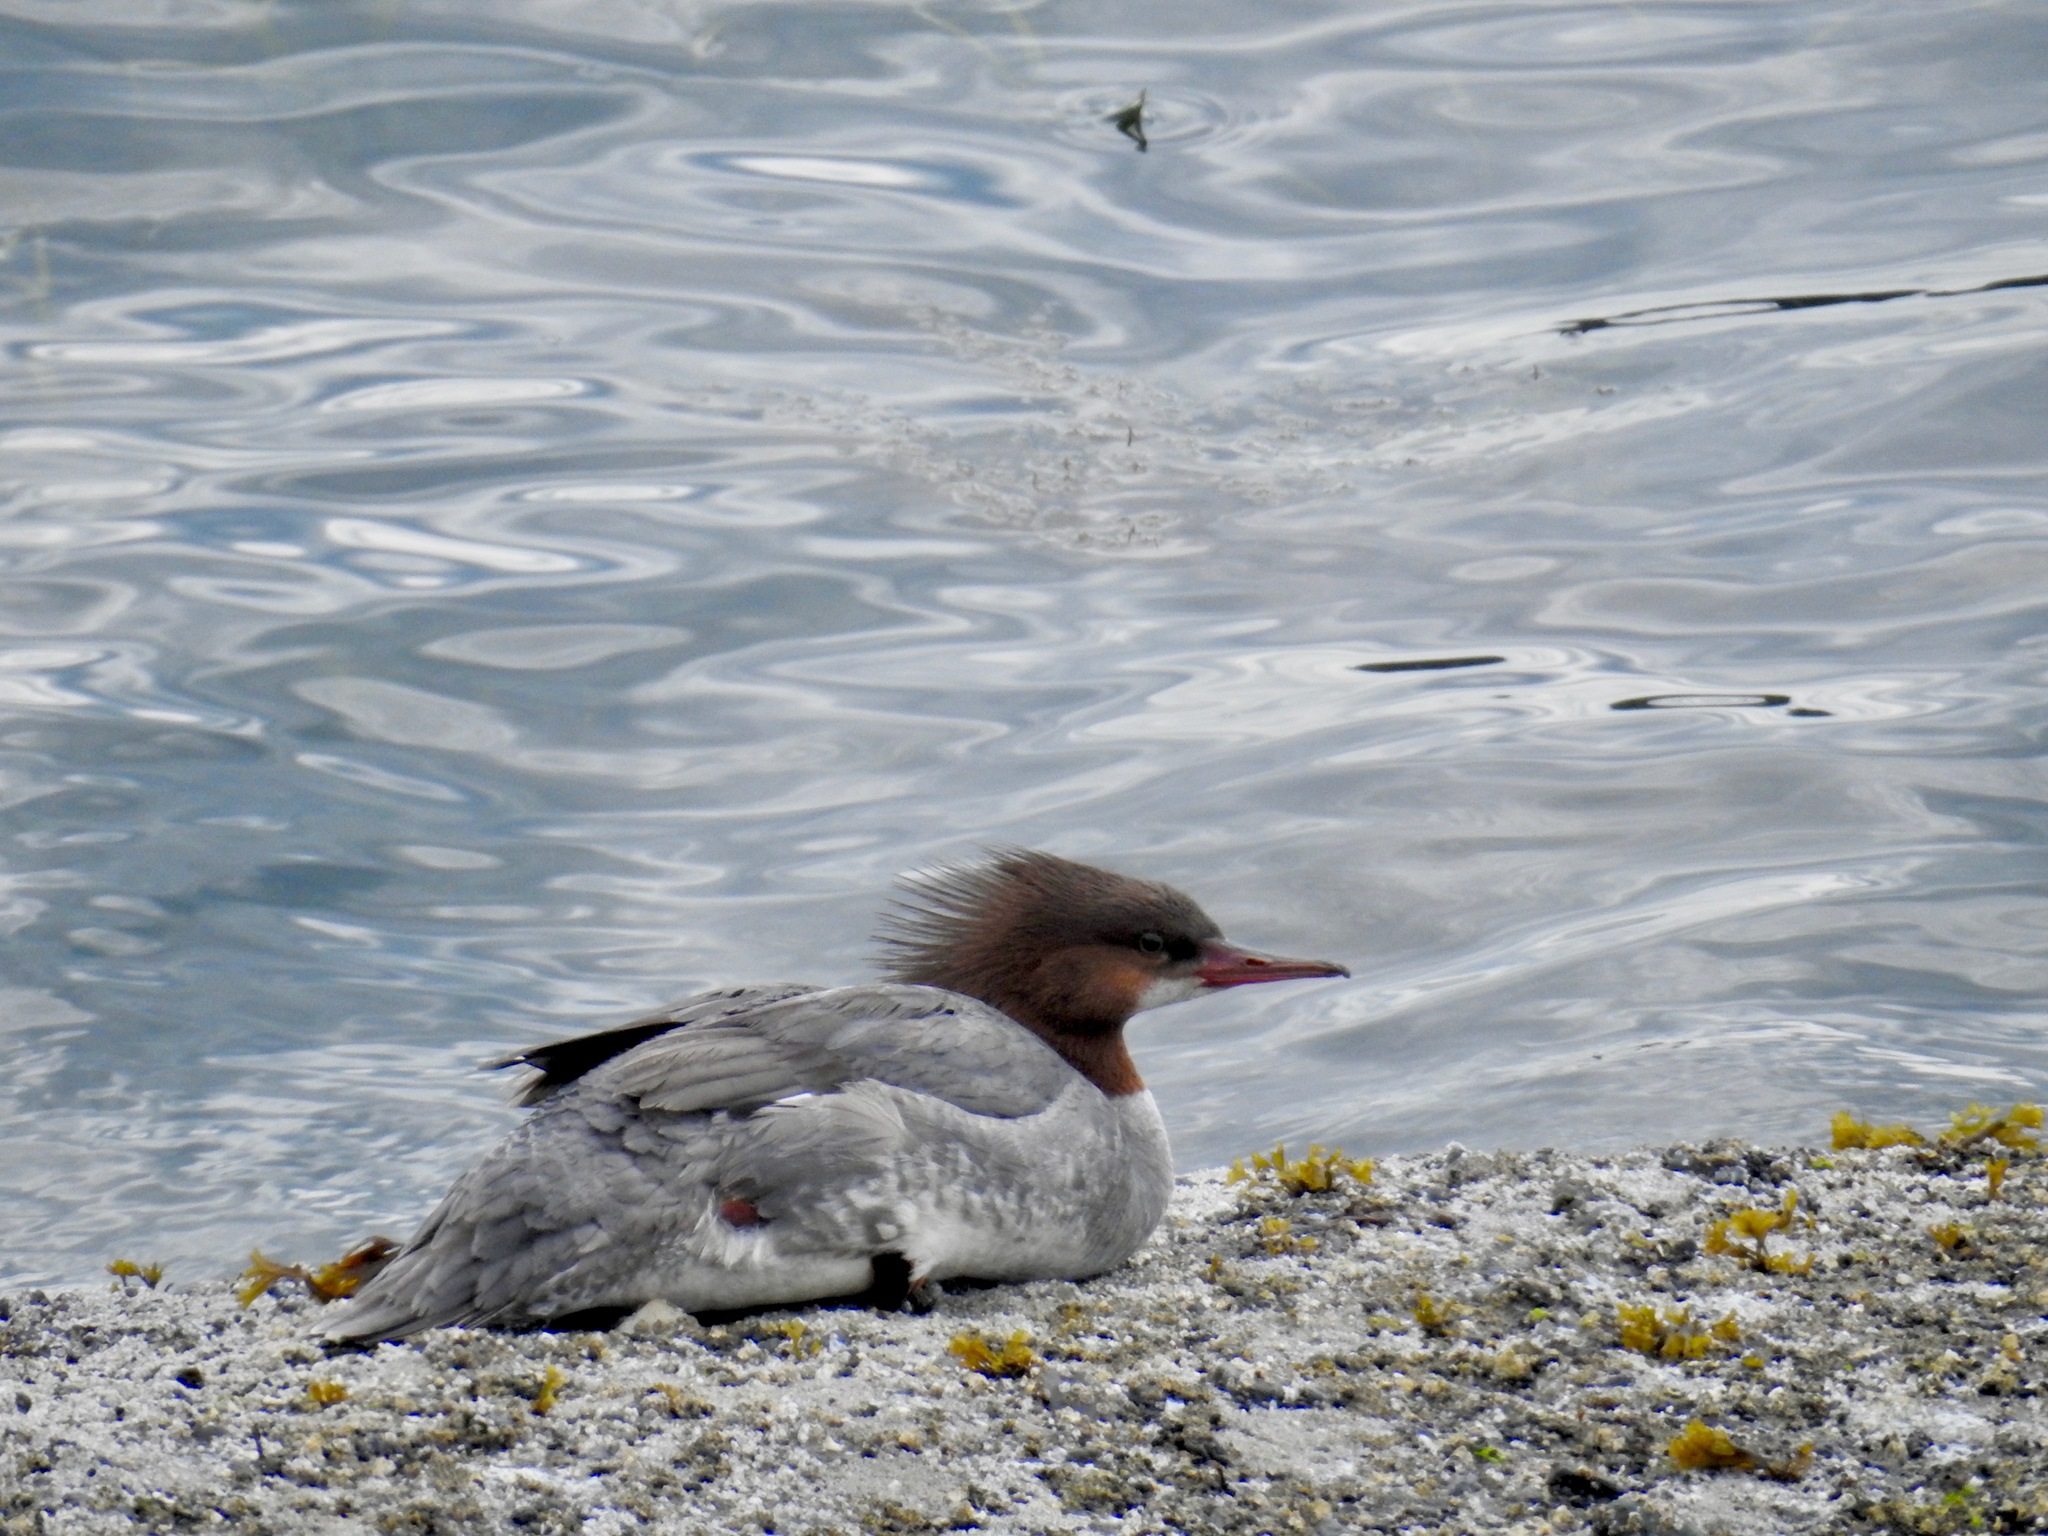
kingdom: Animalia
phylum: Chordata
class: Aves
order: Anseriformes
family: Anatidae
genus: Mergus
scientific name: Mergus merganser
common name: Common merganser
